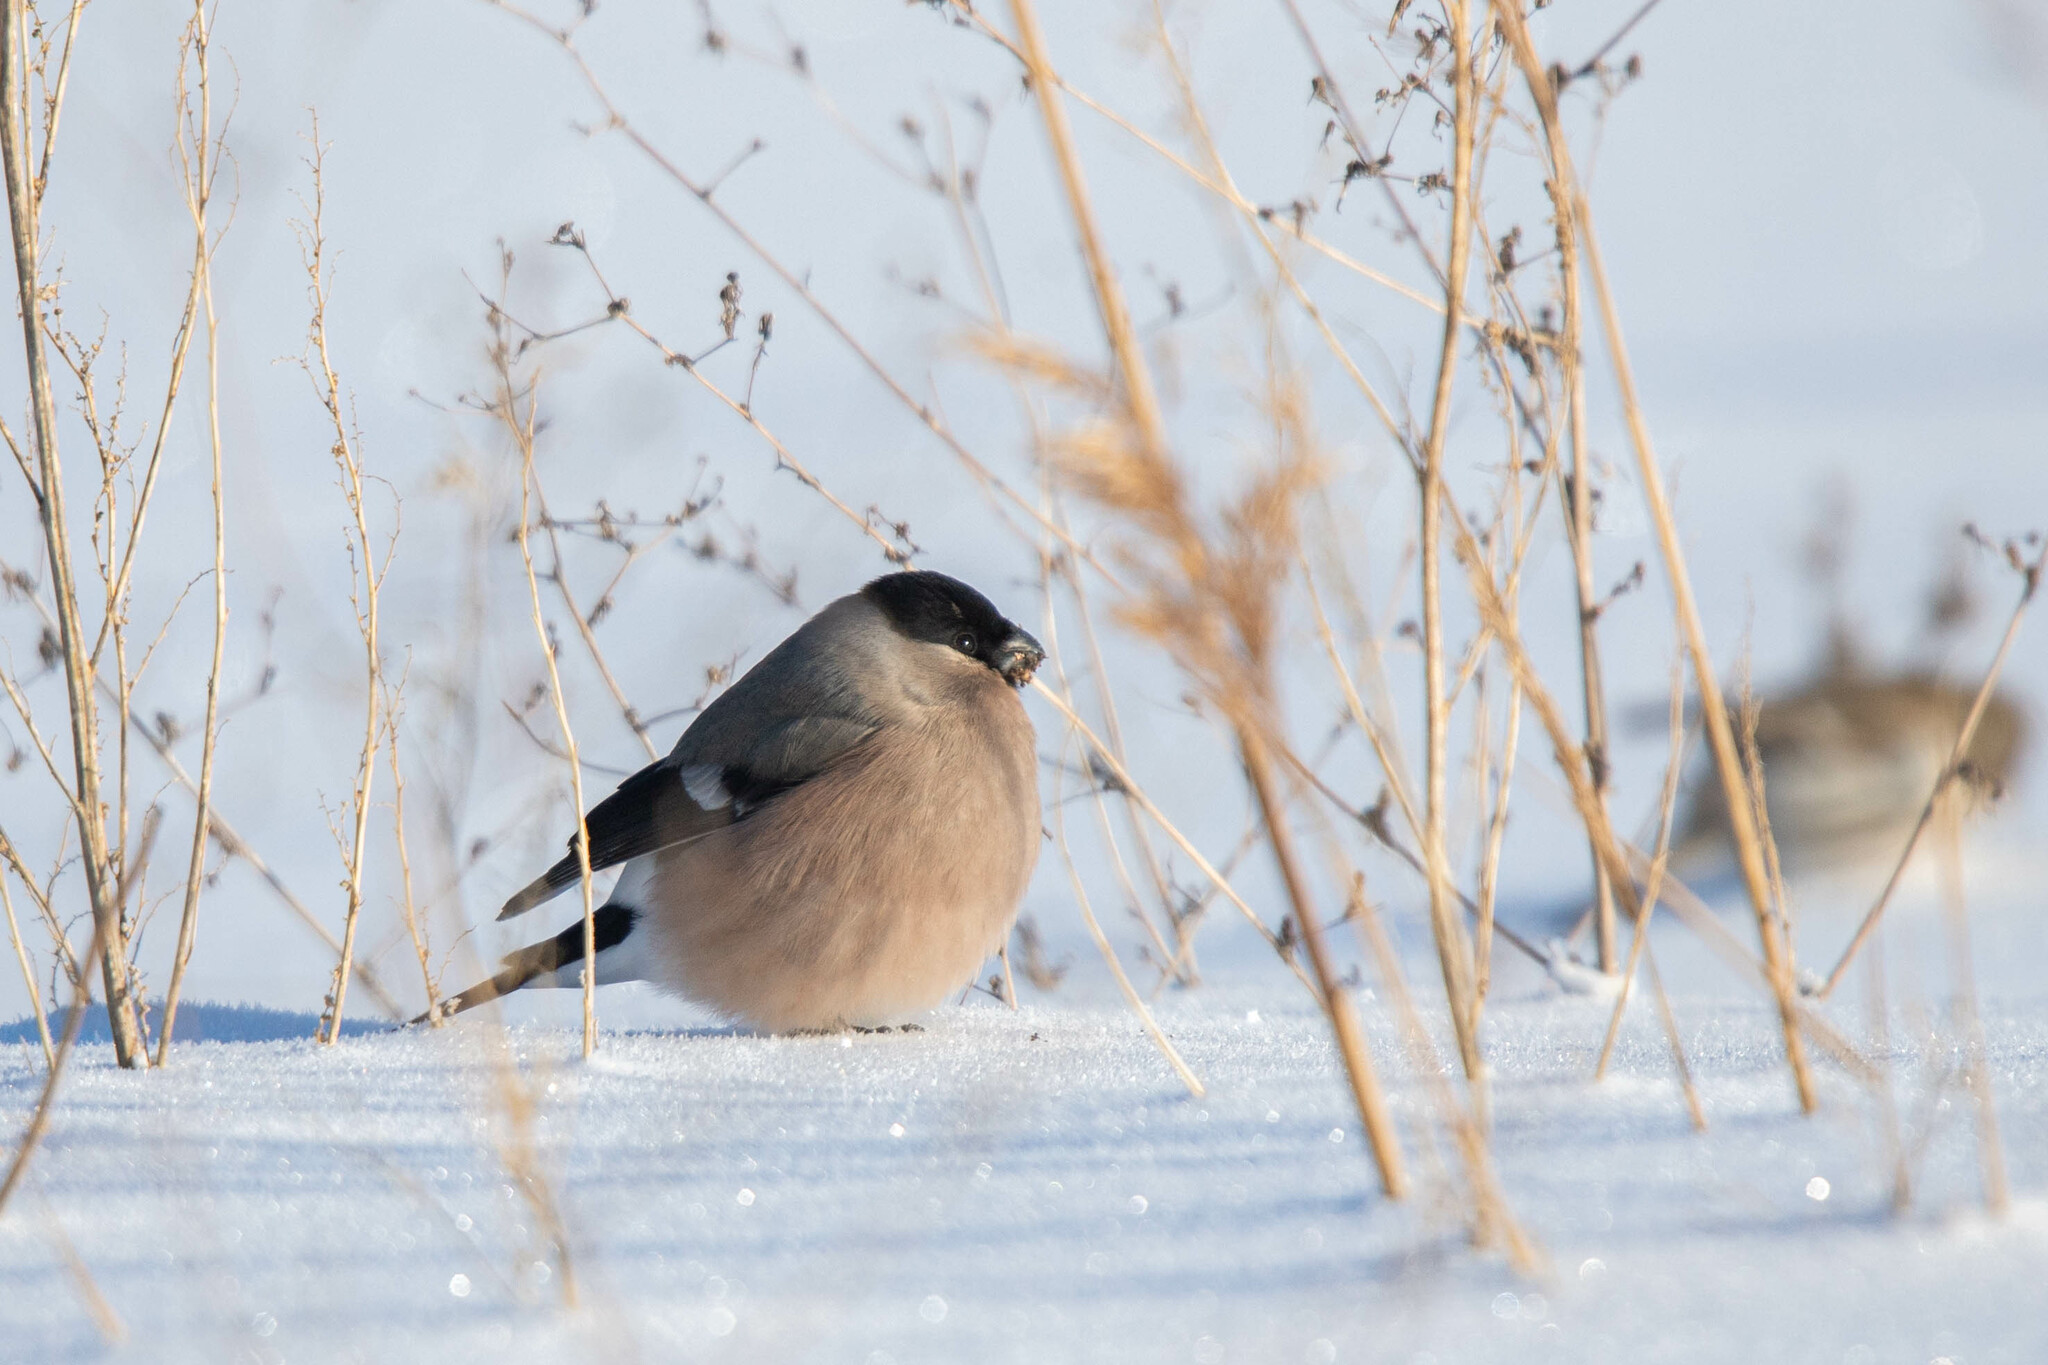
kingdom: Animalia
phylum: Chordata
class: Aves
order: Passeriformes
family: Fringillidae
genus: Pyrrhula
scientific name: Pyrrhula pyrrhula
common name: Eurasian bullfinch
